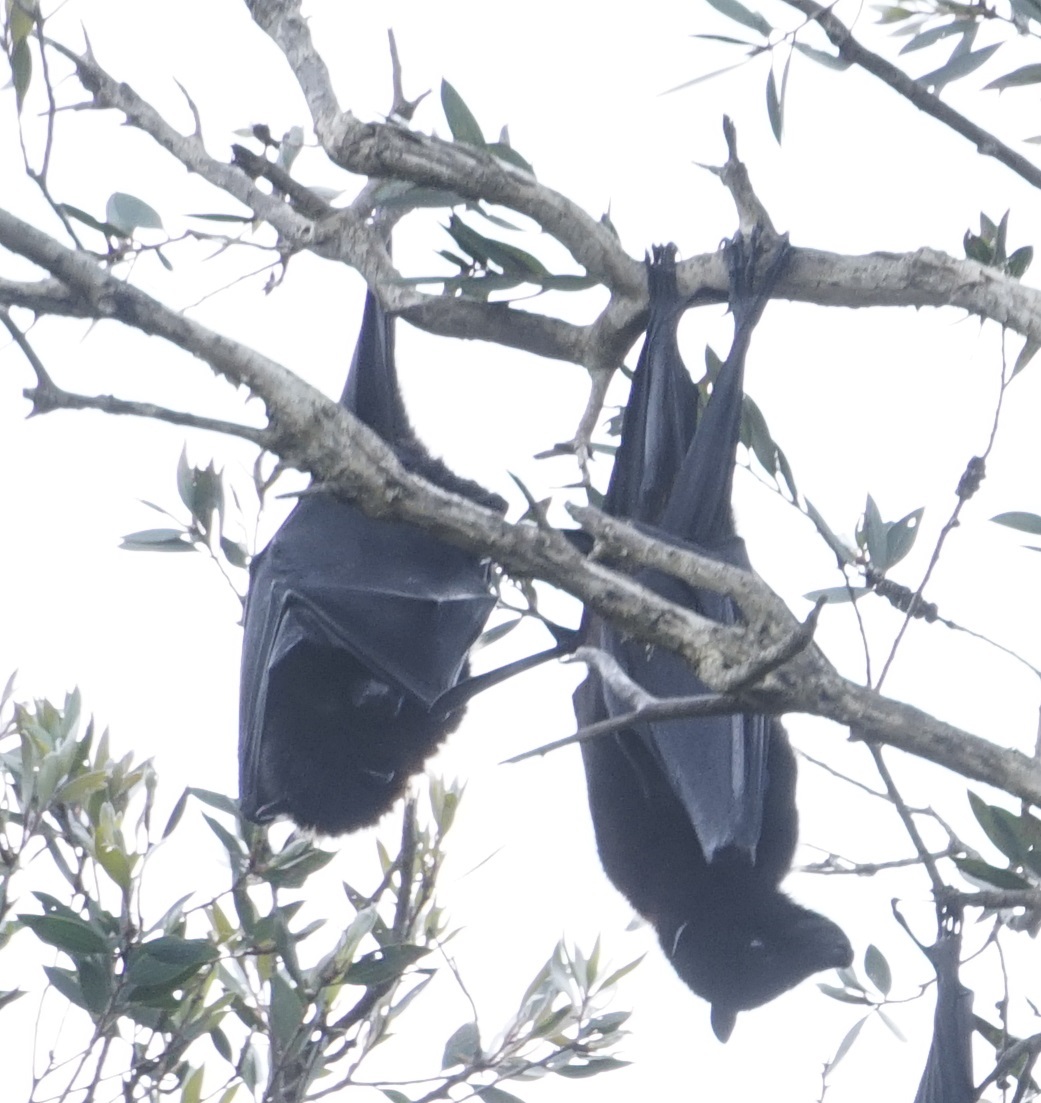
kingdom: Animalia
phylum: Chordata
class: Mammalia
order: Chiroptera
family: Pteropodidae
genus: Pteropus
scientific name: Pteropus alecto
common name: Black flying fox
